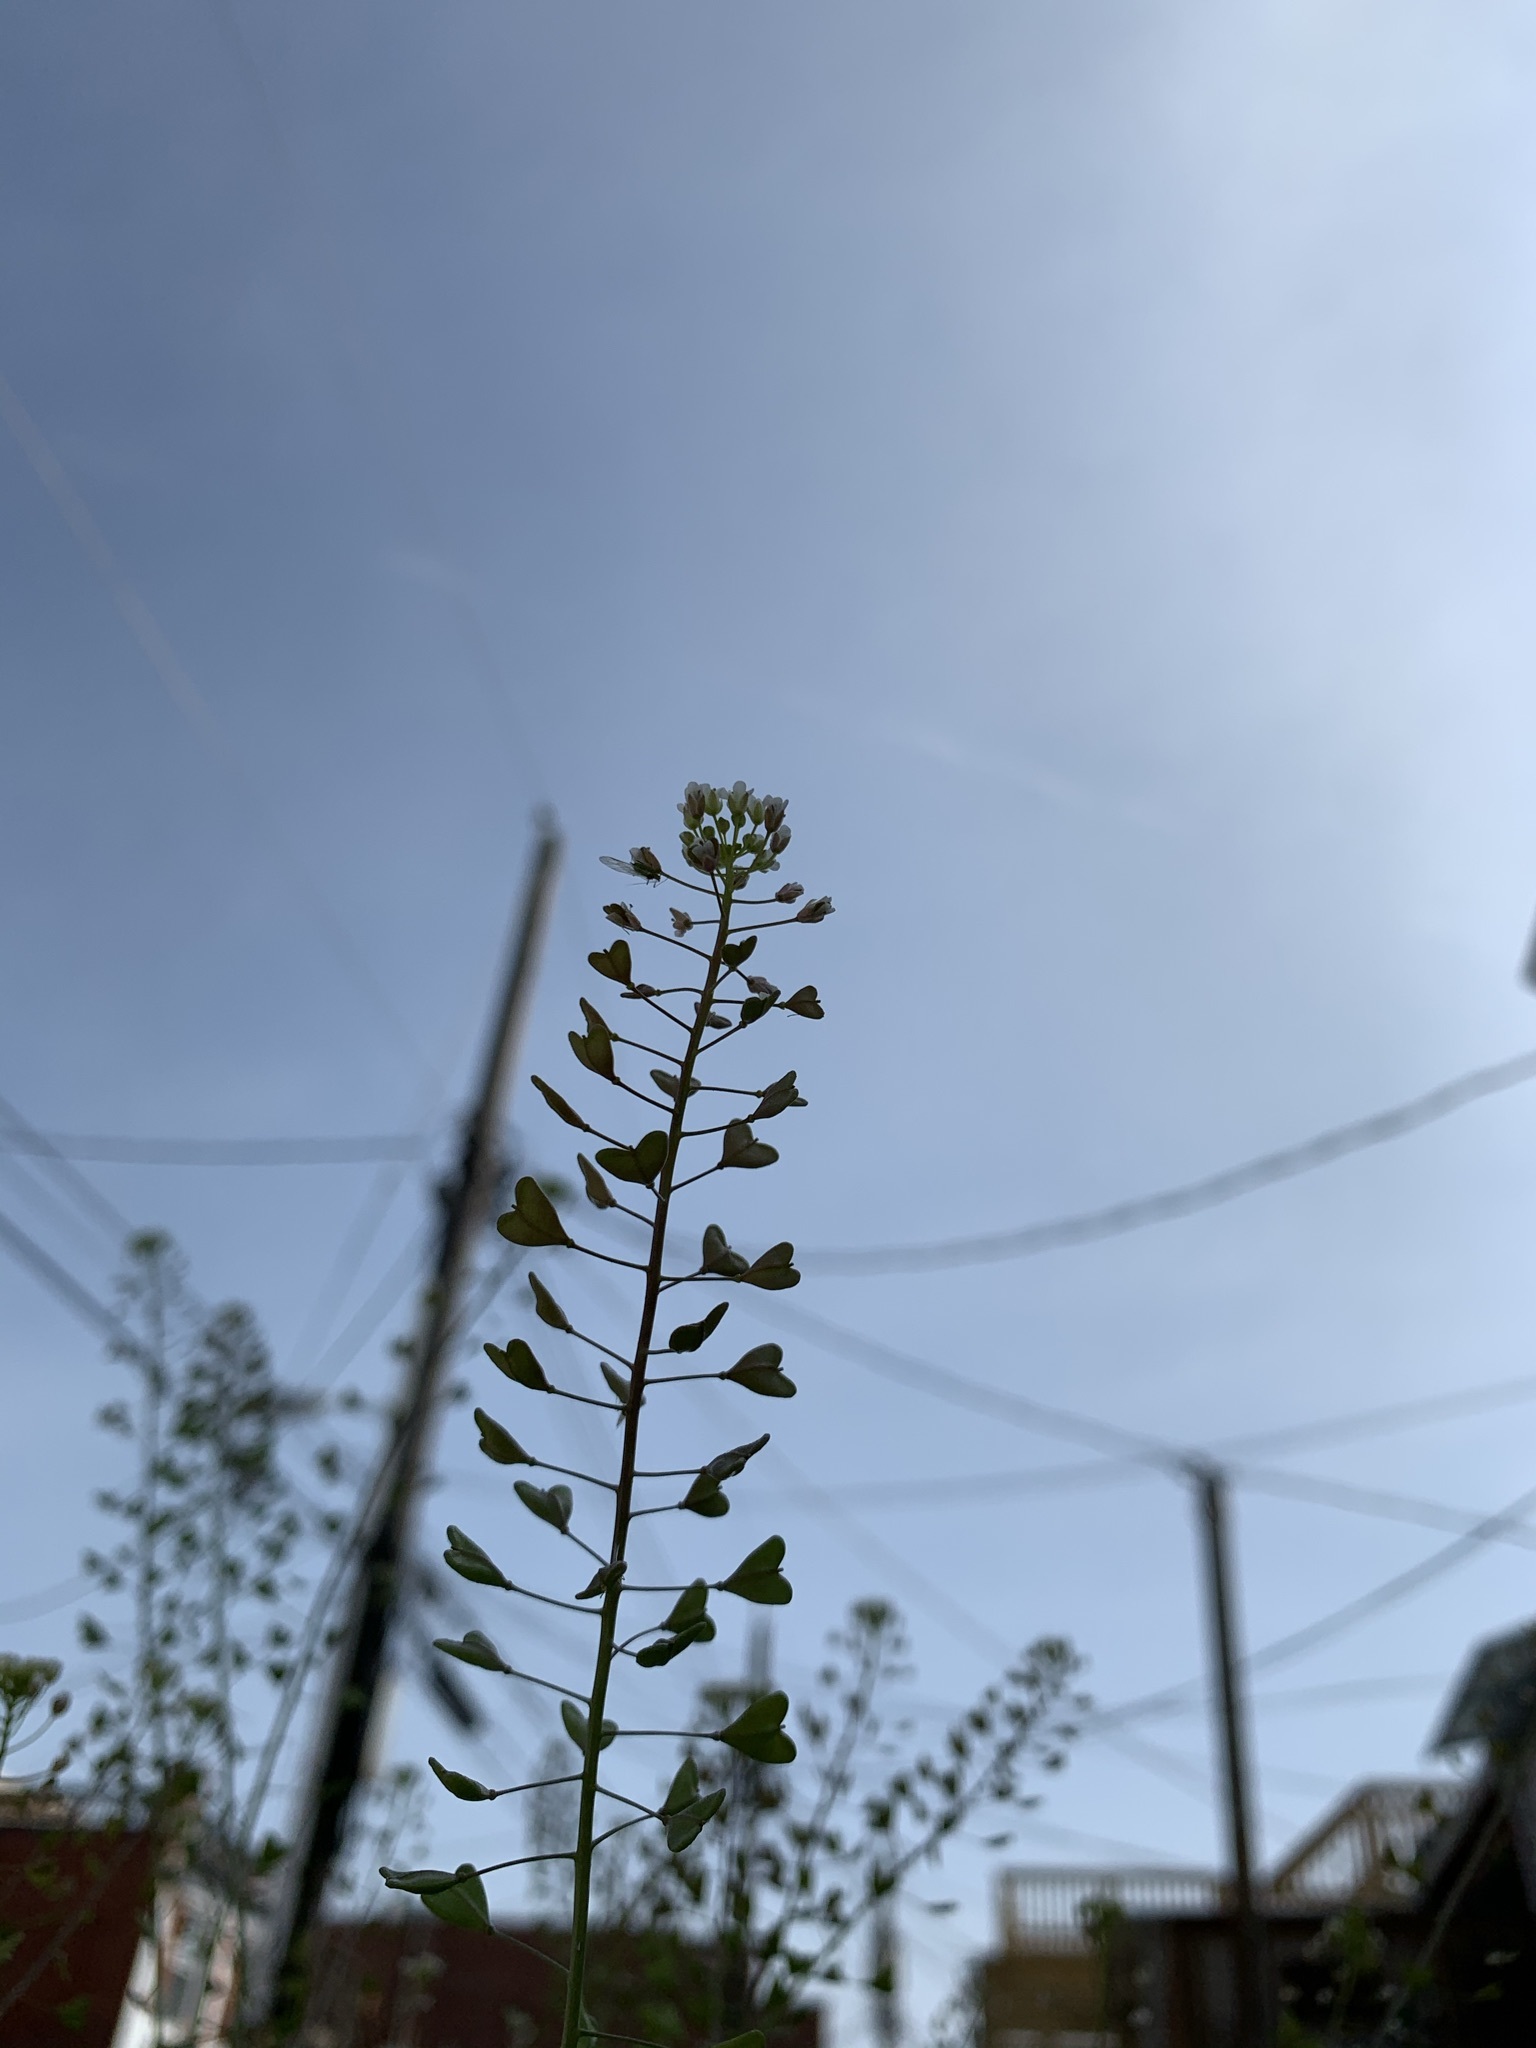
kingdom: Plantae
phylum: Tracheophyta
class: Magnoliopsida
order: Brassicales
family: Brassicaceae
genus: Capsella
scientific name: Capsella bursa-pastoris
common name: Shepherd's purse
